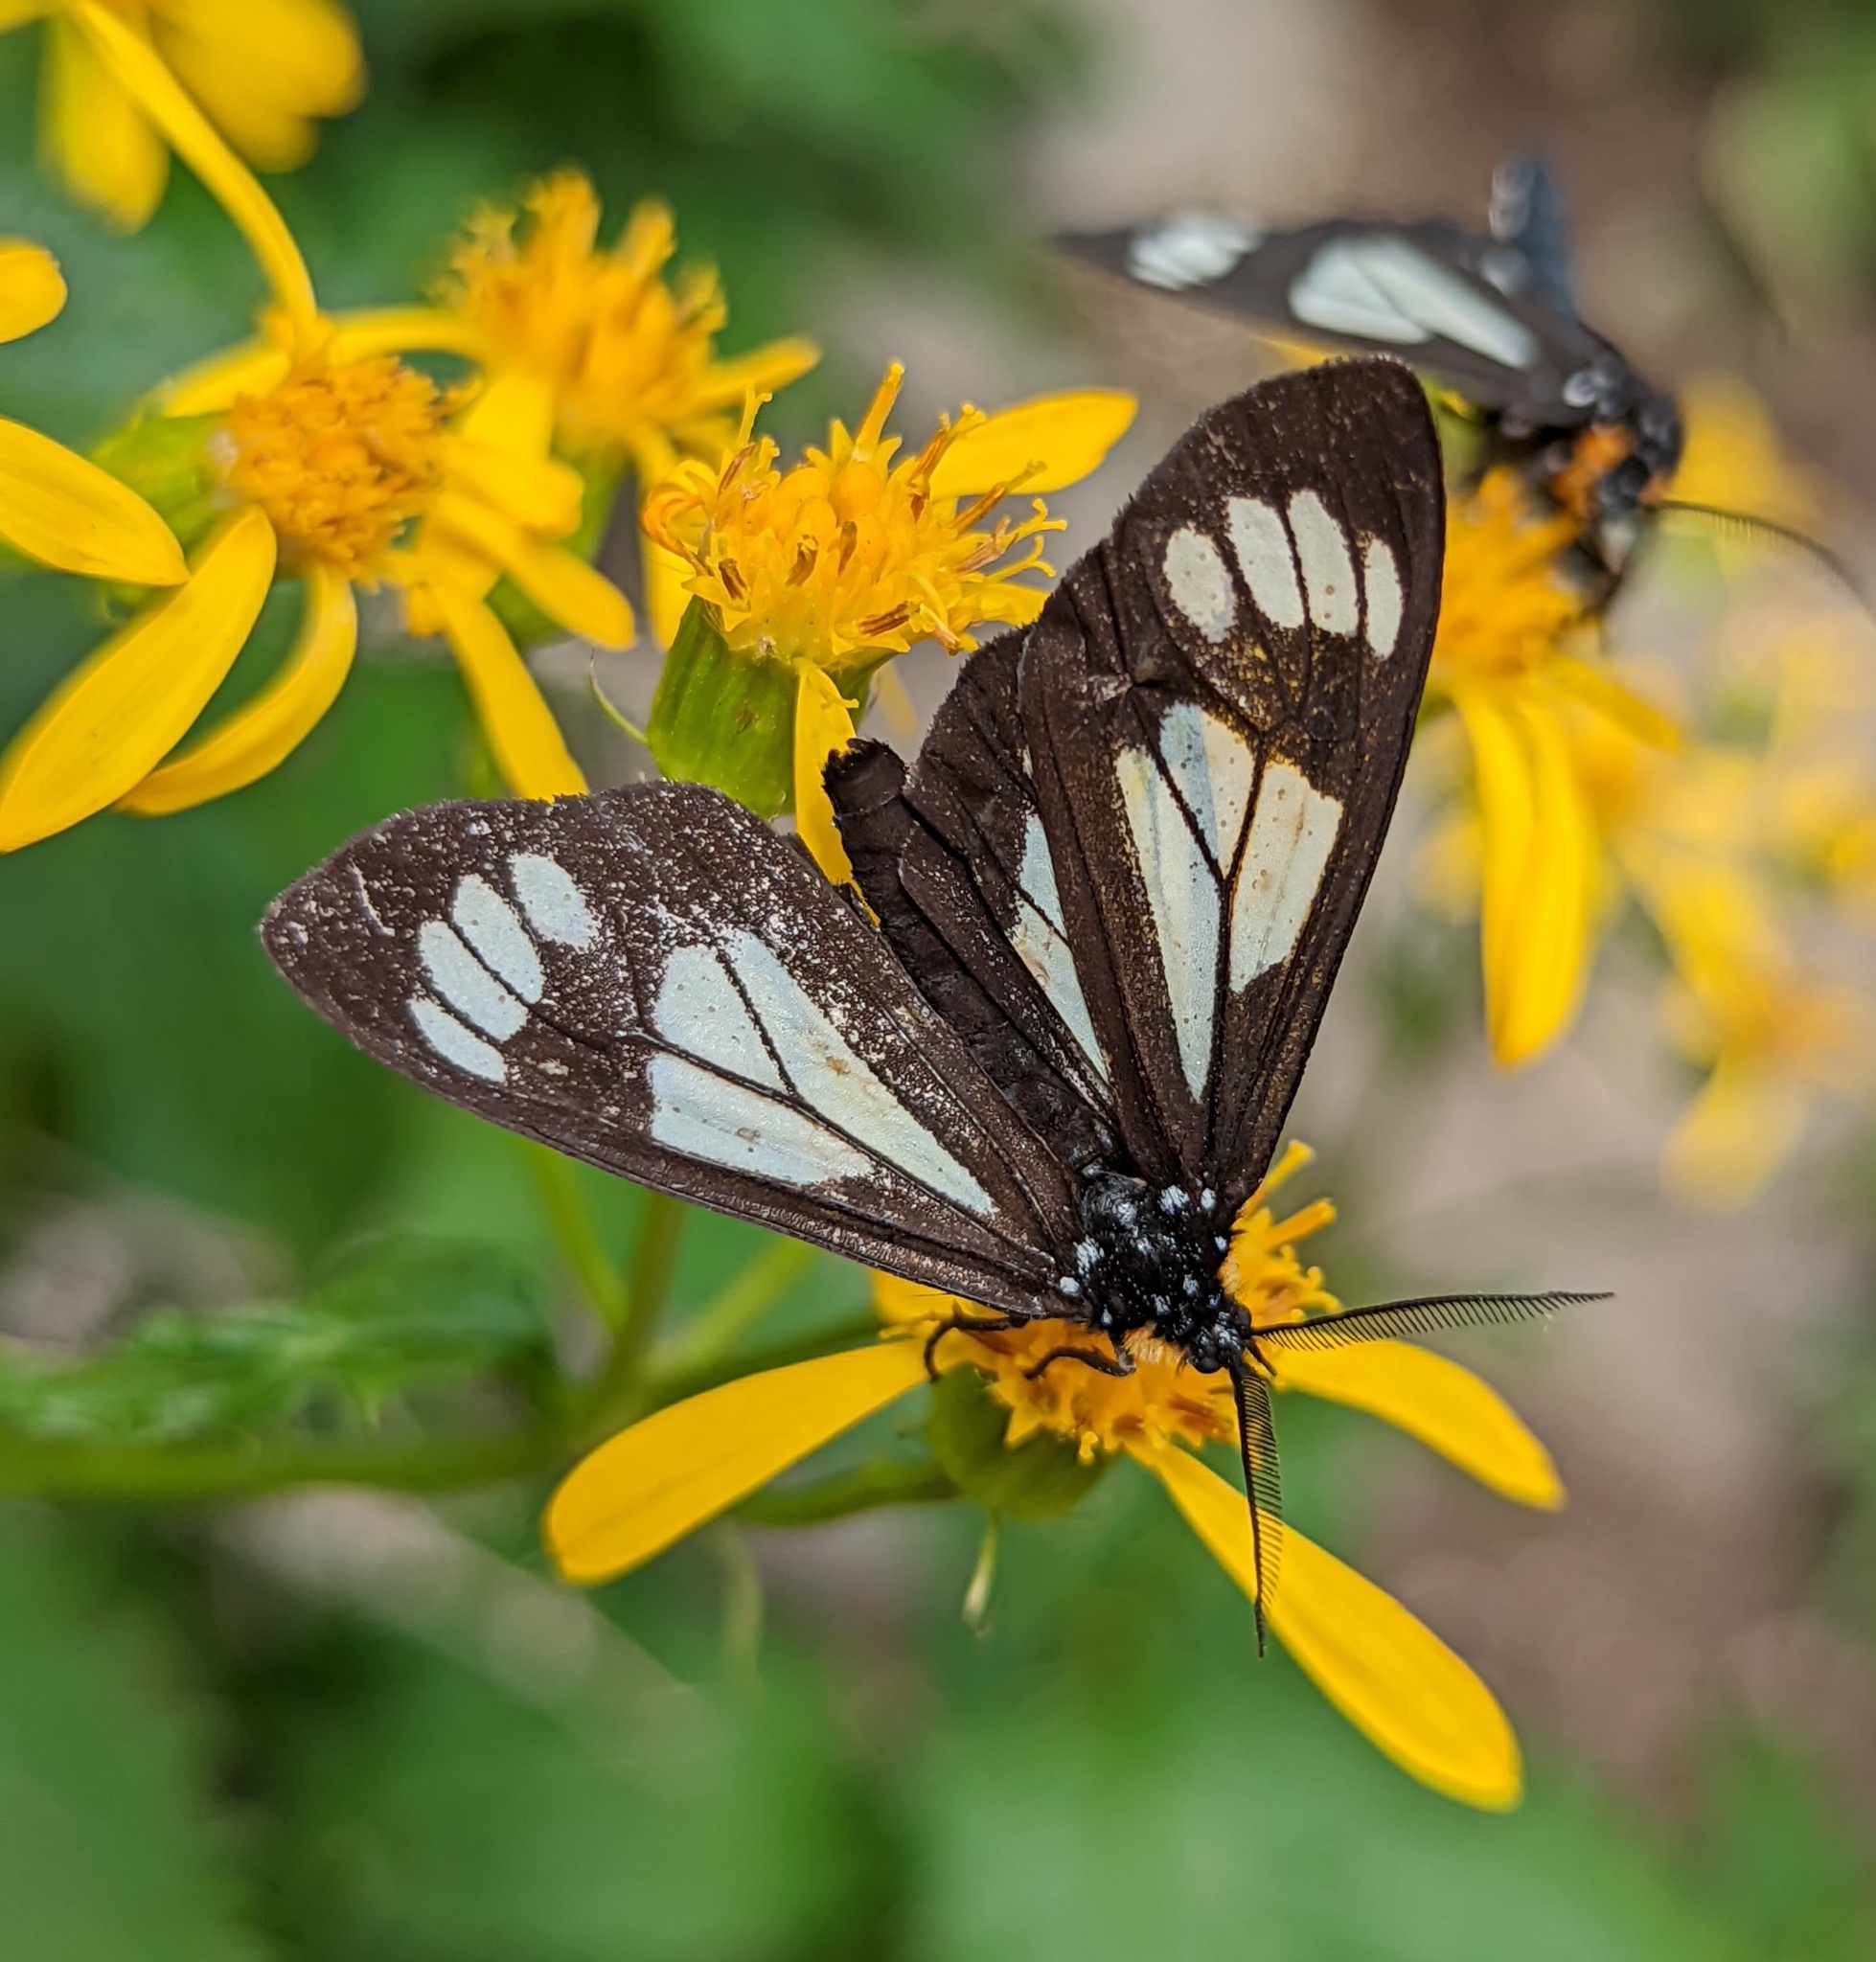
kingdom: Animalia
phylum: Arthropoda
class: Insecta
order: Lepidoptera
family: Erebidae
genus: Gnophaela
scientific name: Gnophaela vermiculata
